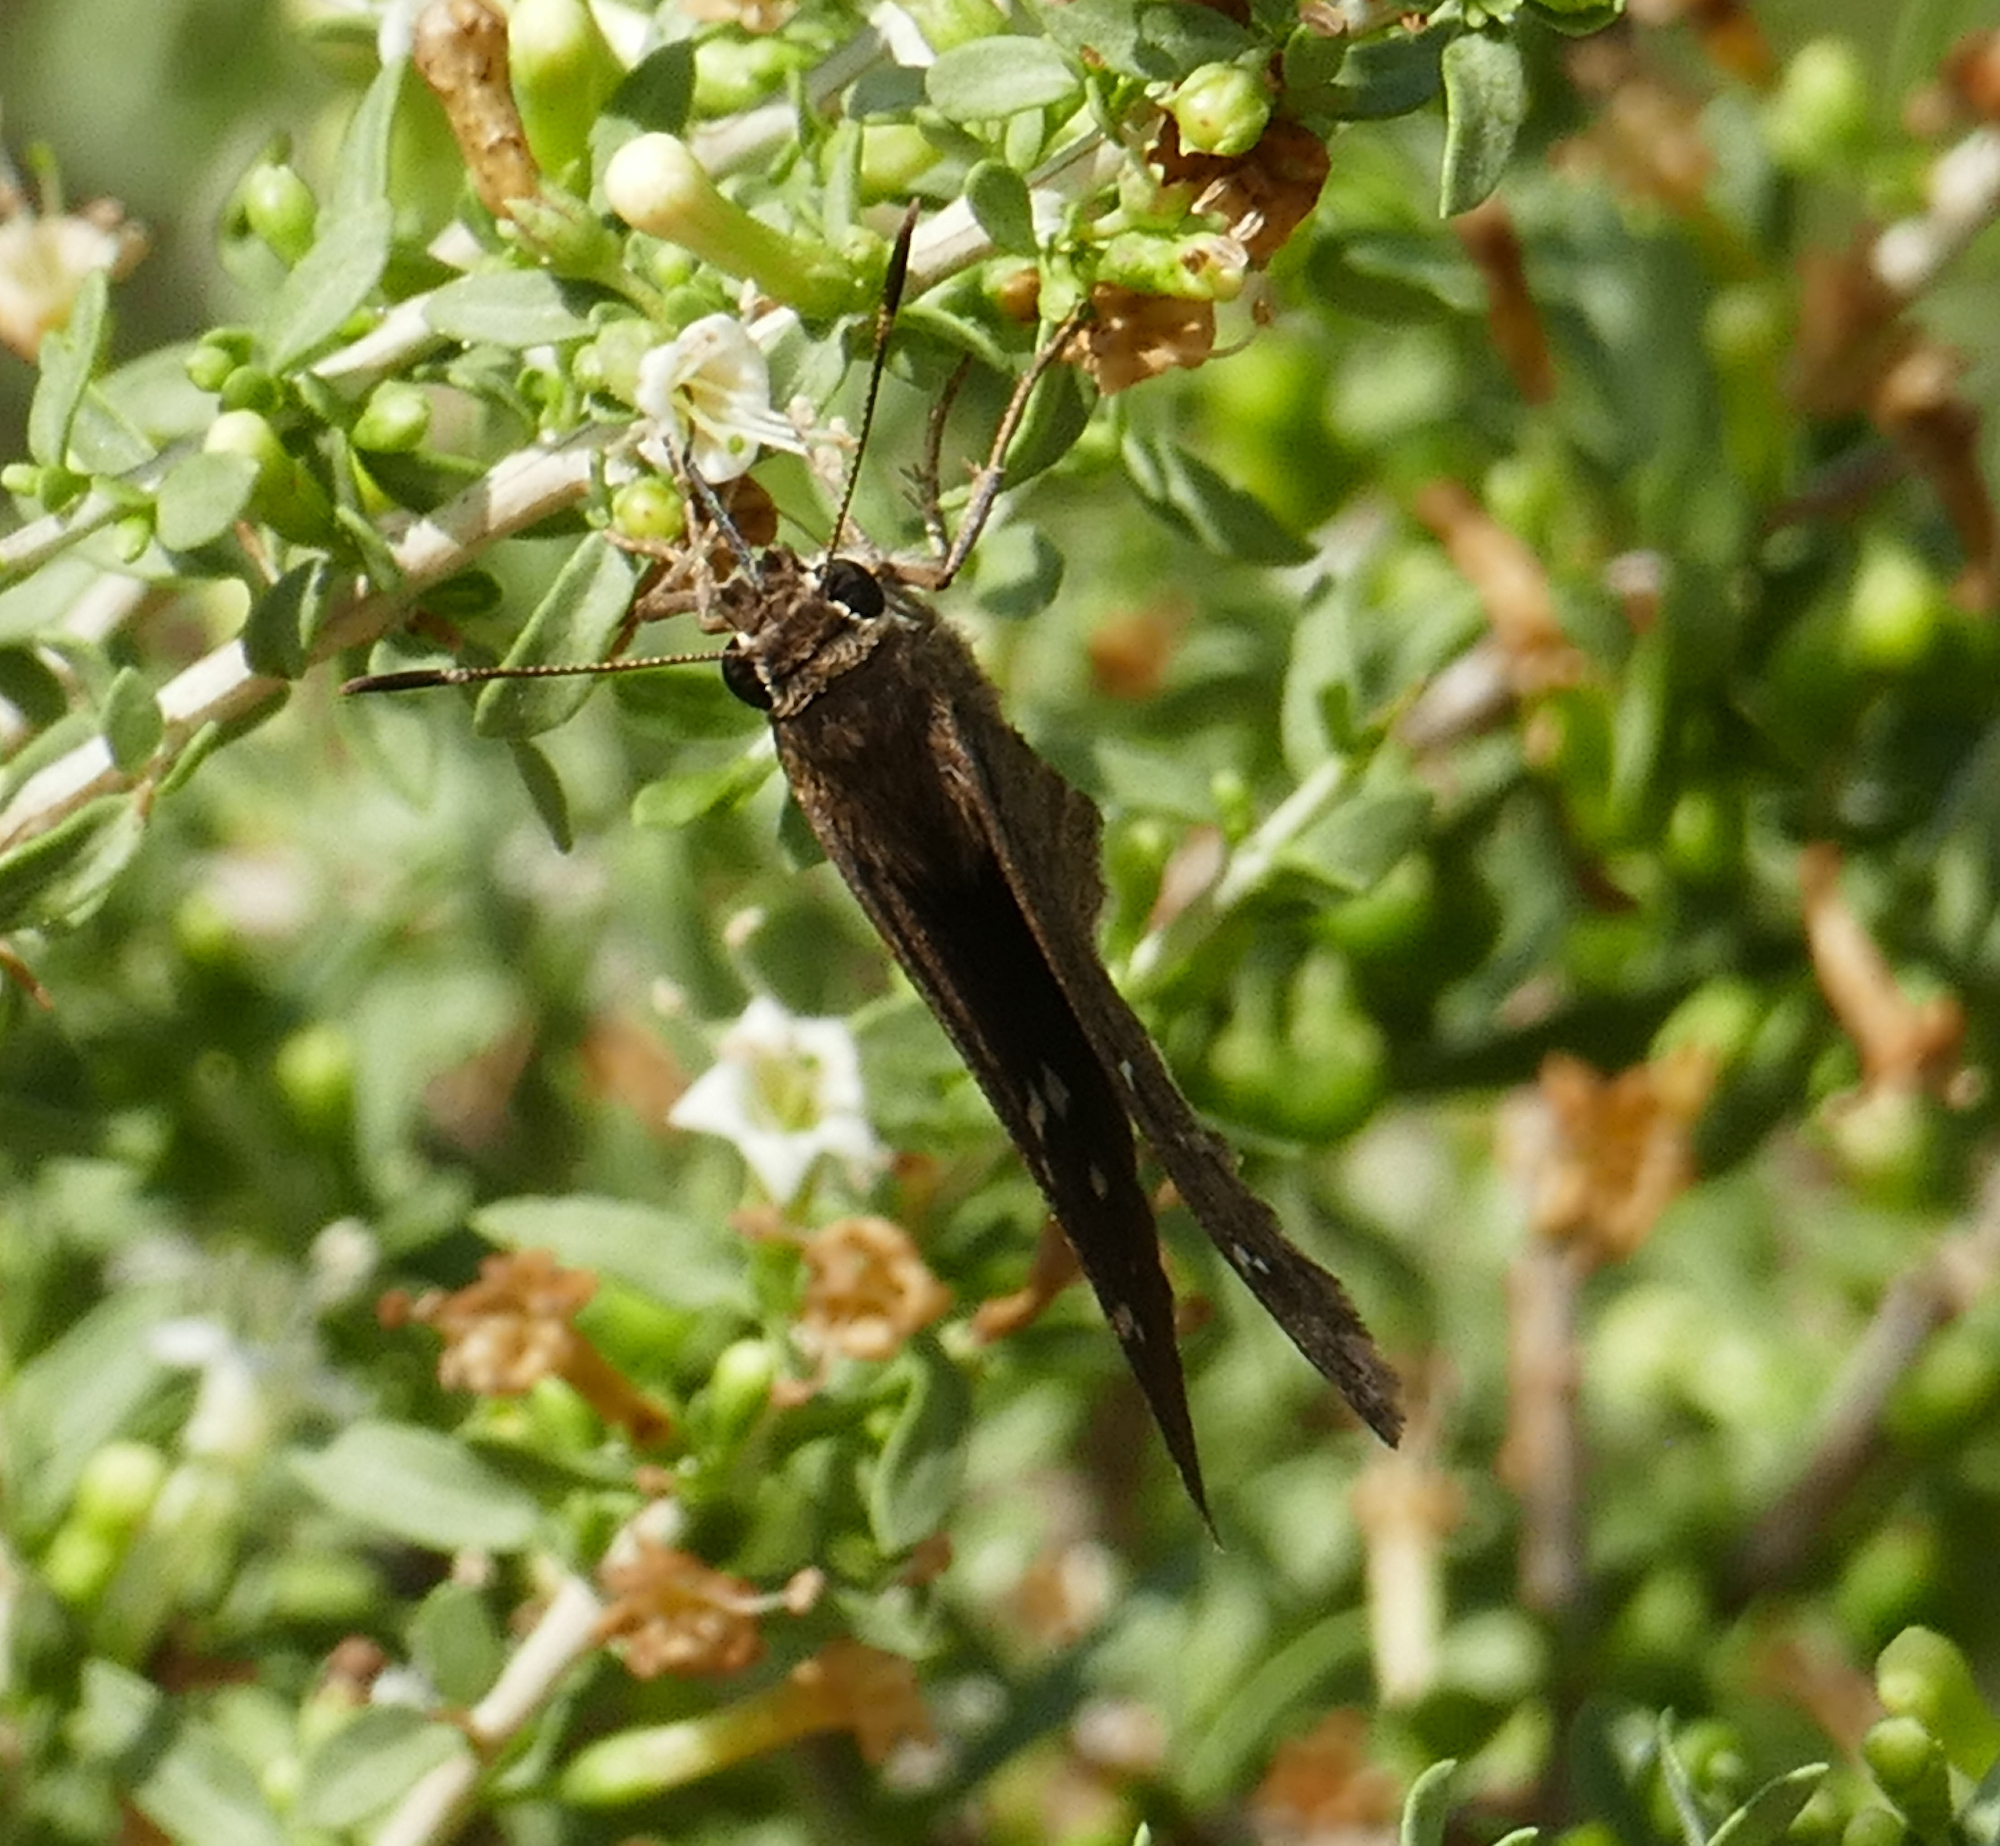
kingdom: Animalia
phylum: Arthropoda
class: Insecta
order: Lepidoptera
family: Hesperiidae
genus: Cogia
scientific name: Cogia hippalus
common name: Acacia skipper
